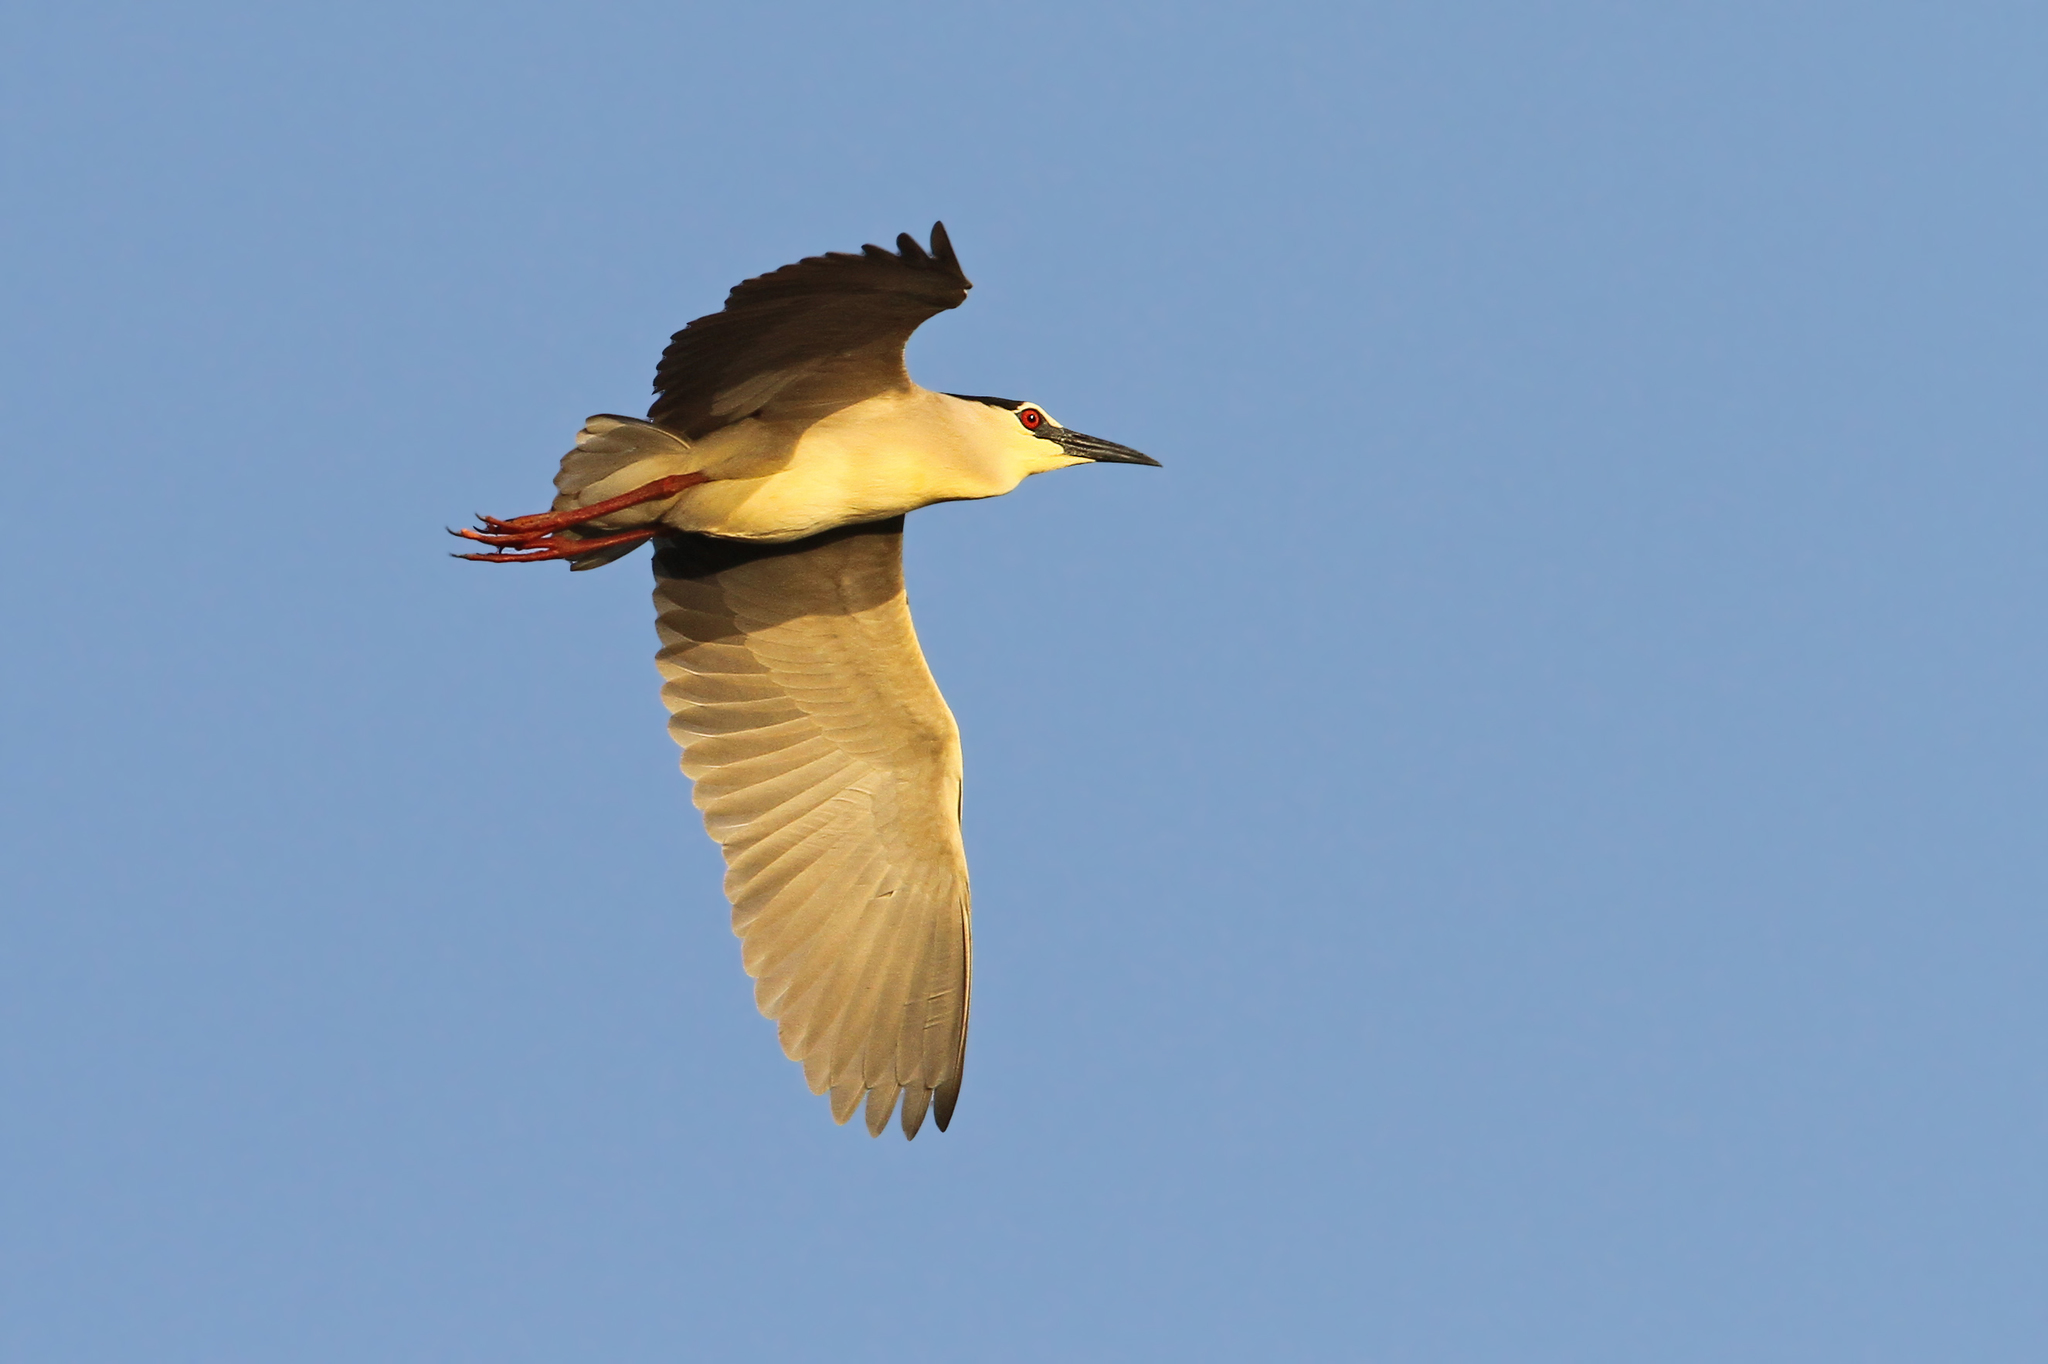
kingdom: Animalia
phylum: Chordata
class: Aves
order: Pelecaniformes
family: Ardeidae
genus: Nycticorax
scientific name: Nycticorax nycticorax
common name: Black-crowned night heron
